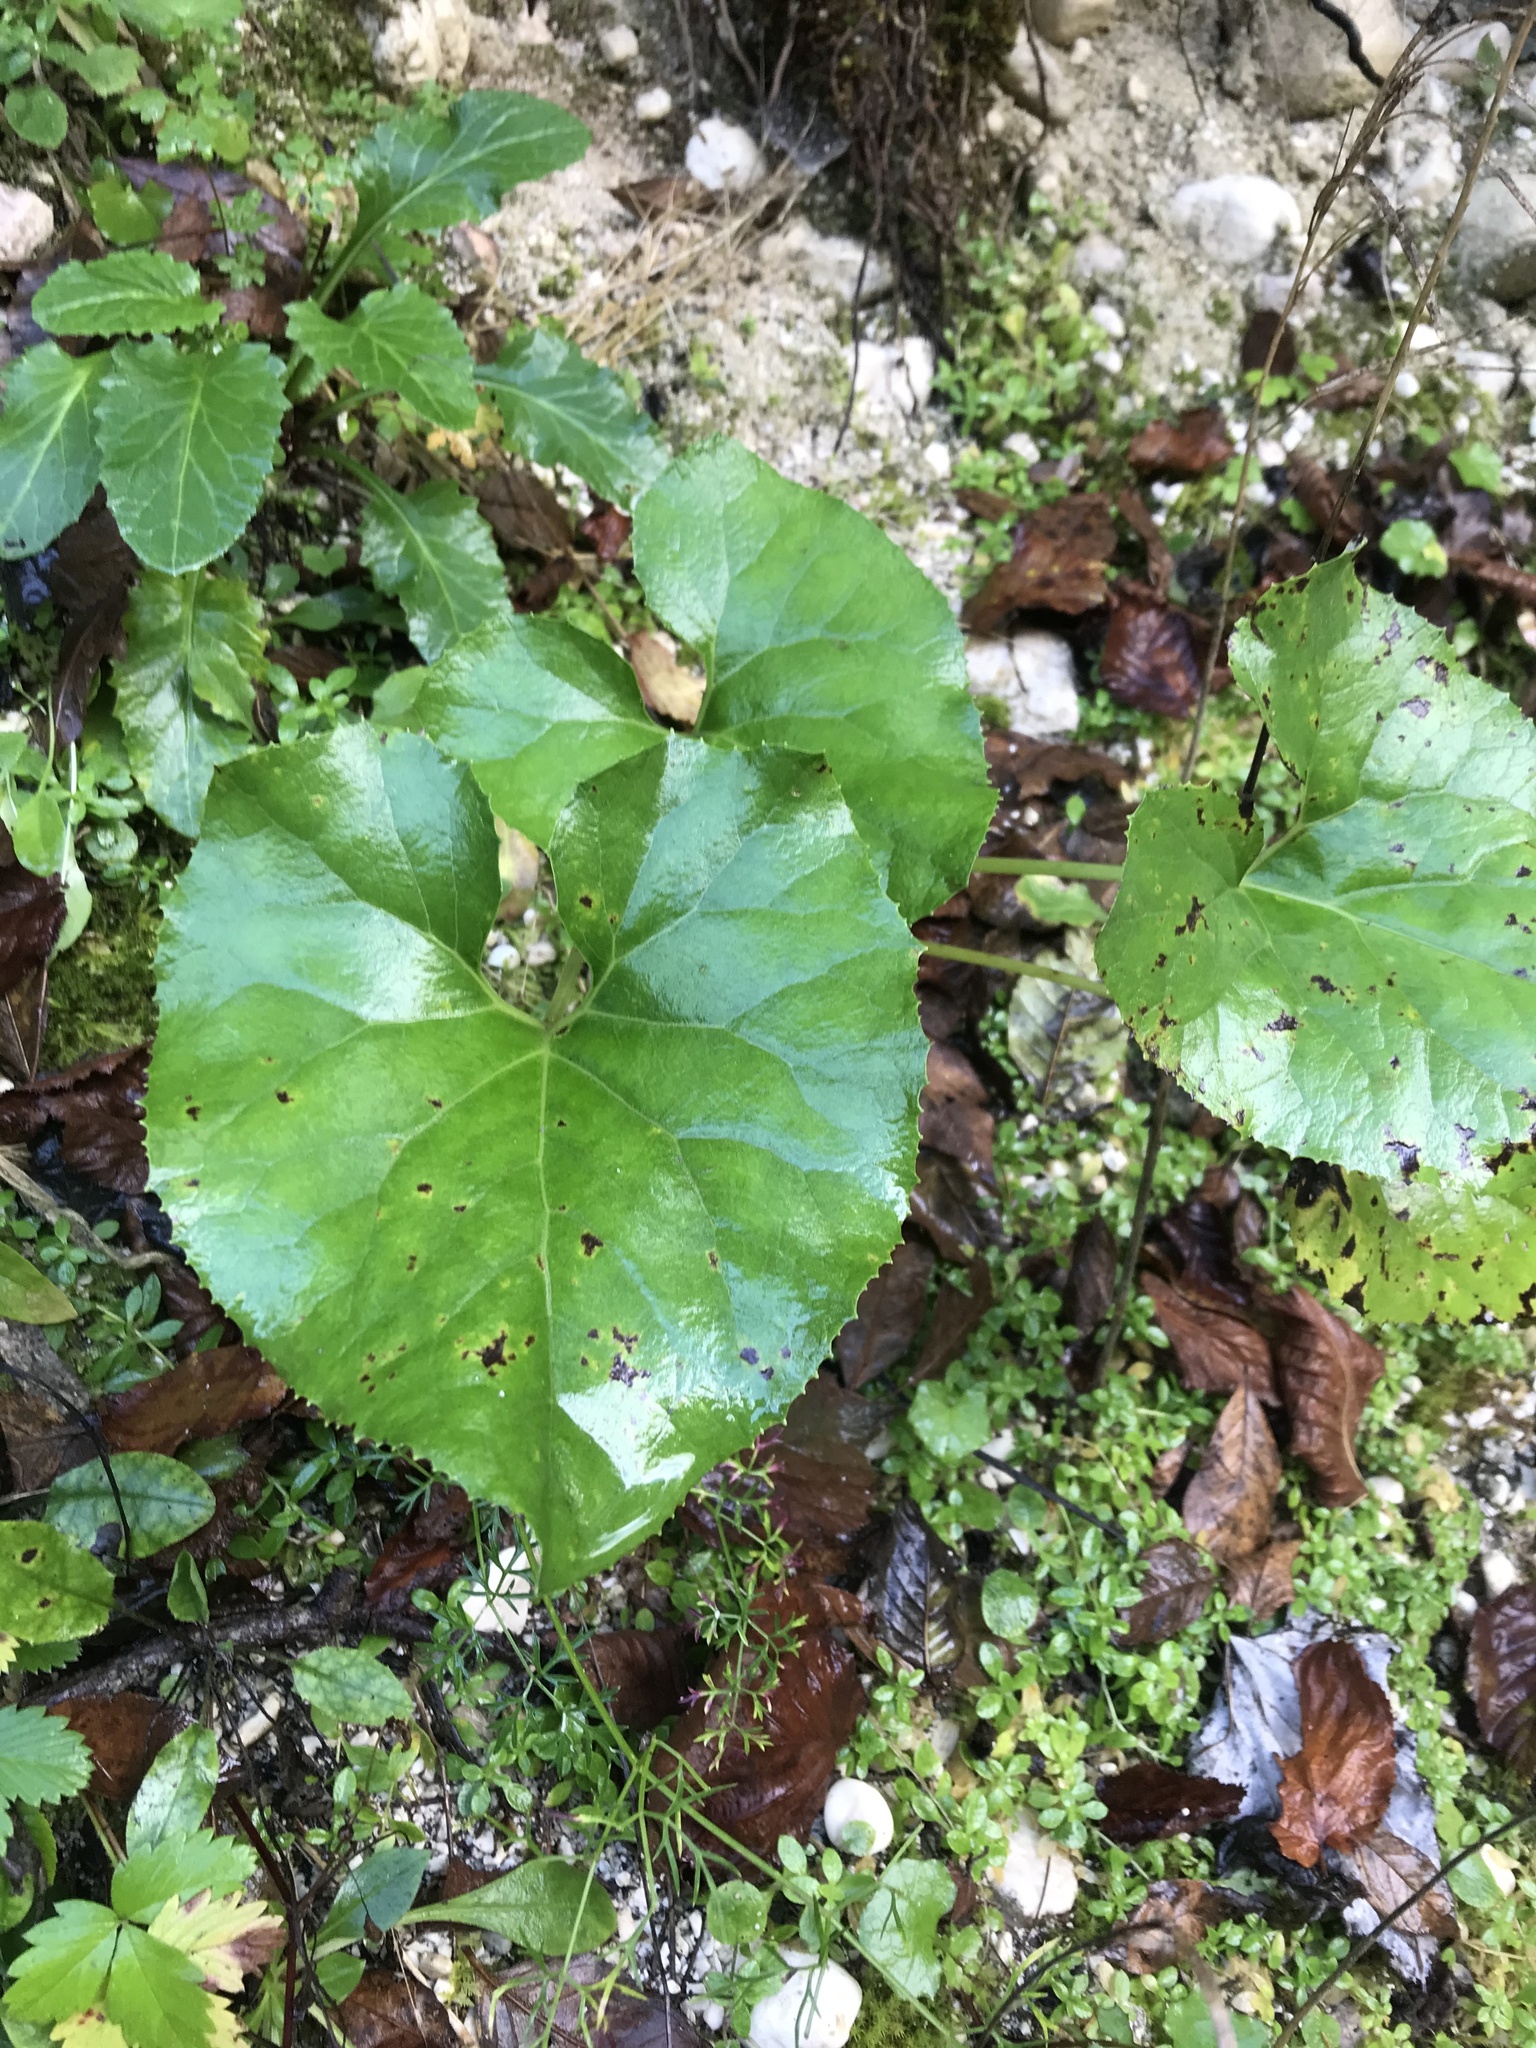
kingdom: Plantae
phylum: Tracheophyta
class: Magnoliopsida
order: Asterales
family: Asteraceae
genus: Petasites
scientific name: Petasites paradoxus
